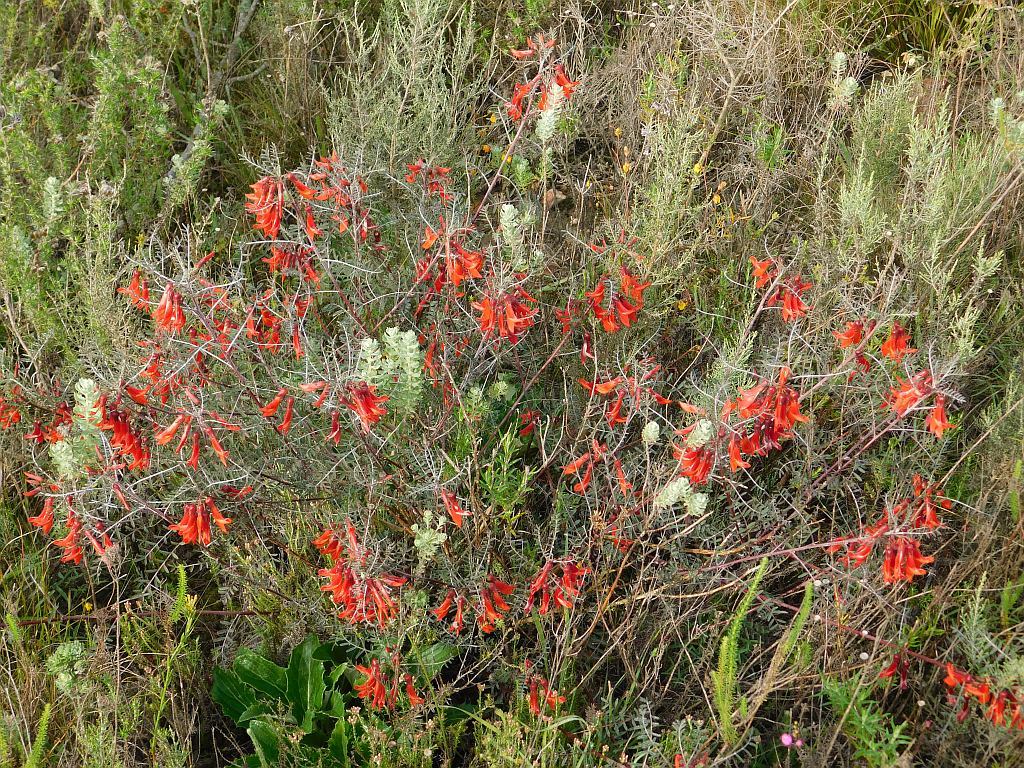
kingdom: Plantae
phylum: Tracheophyta
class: Magnoliopsida
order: Fabales
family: Fabaceae
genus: Lessertia
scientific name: Lessertia frutescens
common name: Balloon-pea
